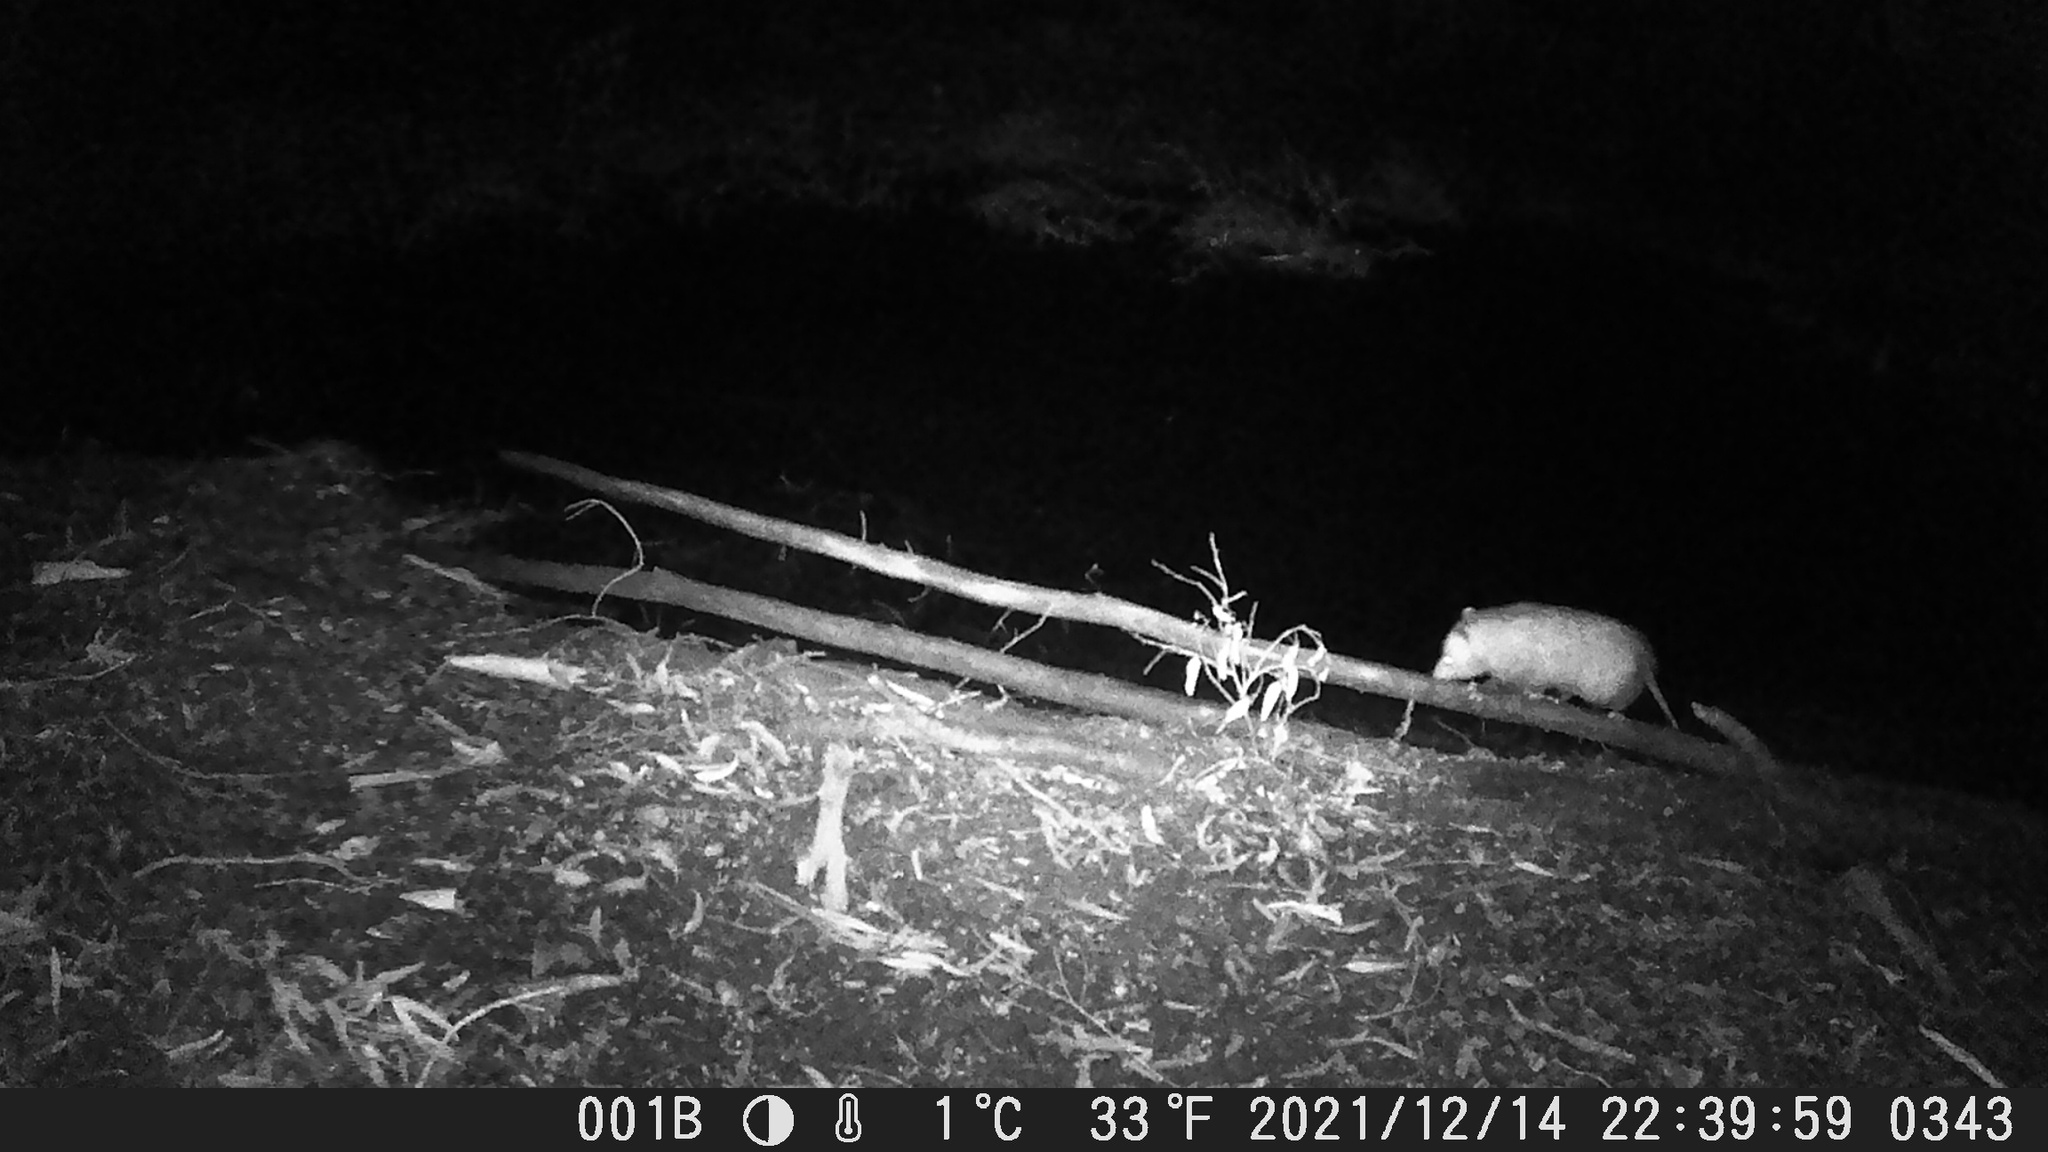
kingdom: Animalia
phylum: Chordata
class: Mammalia
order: Didelphimorphia
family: Didelphidae
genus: Didelphis
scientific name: Didelphis virginiana
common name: Virginia opossum
